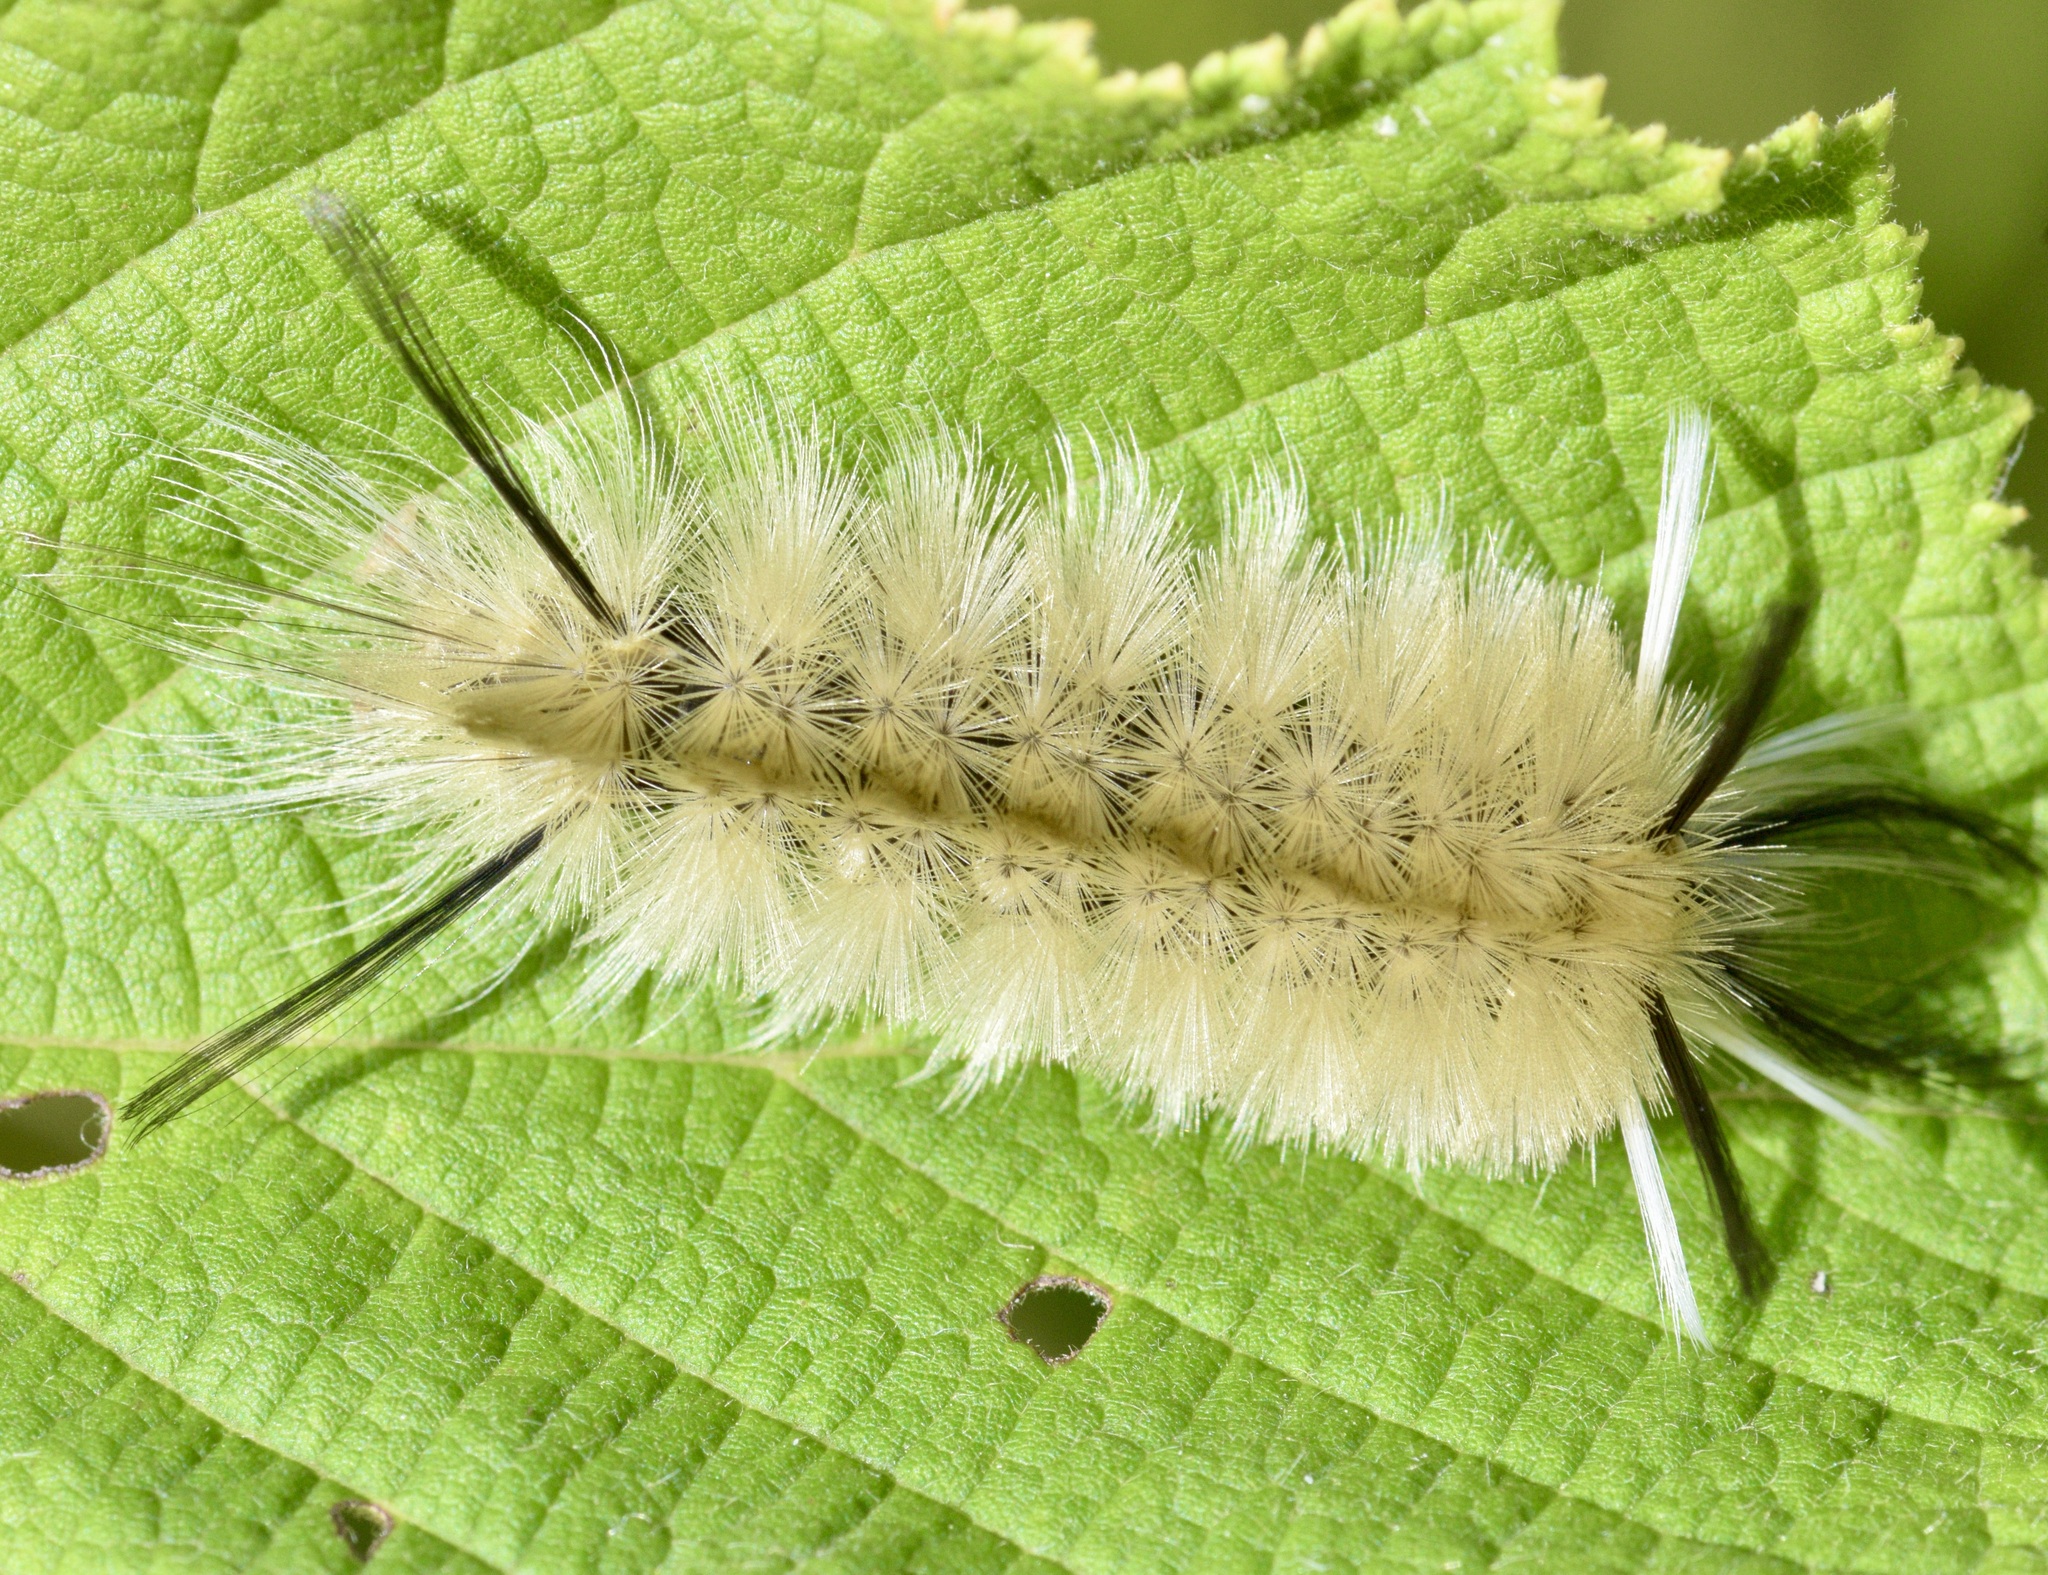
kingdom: Animalia
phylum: Arthropoda
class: Insecta
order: Lepidoptera
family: Erebidae
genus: Halysidota
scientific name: Halysidota tessellaris
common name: Banded tussock moth
